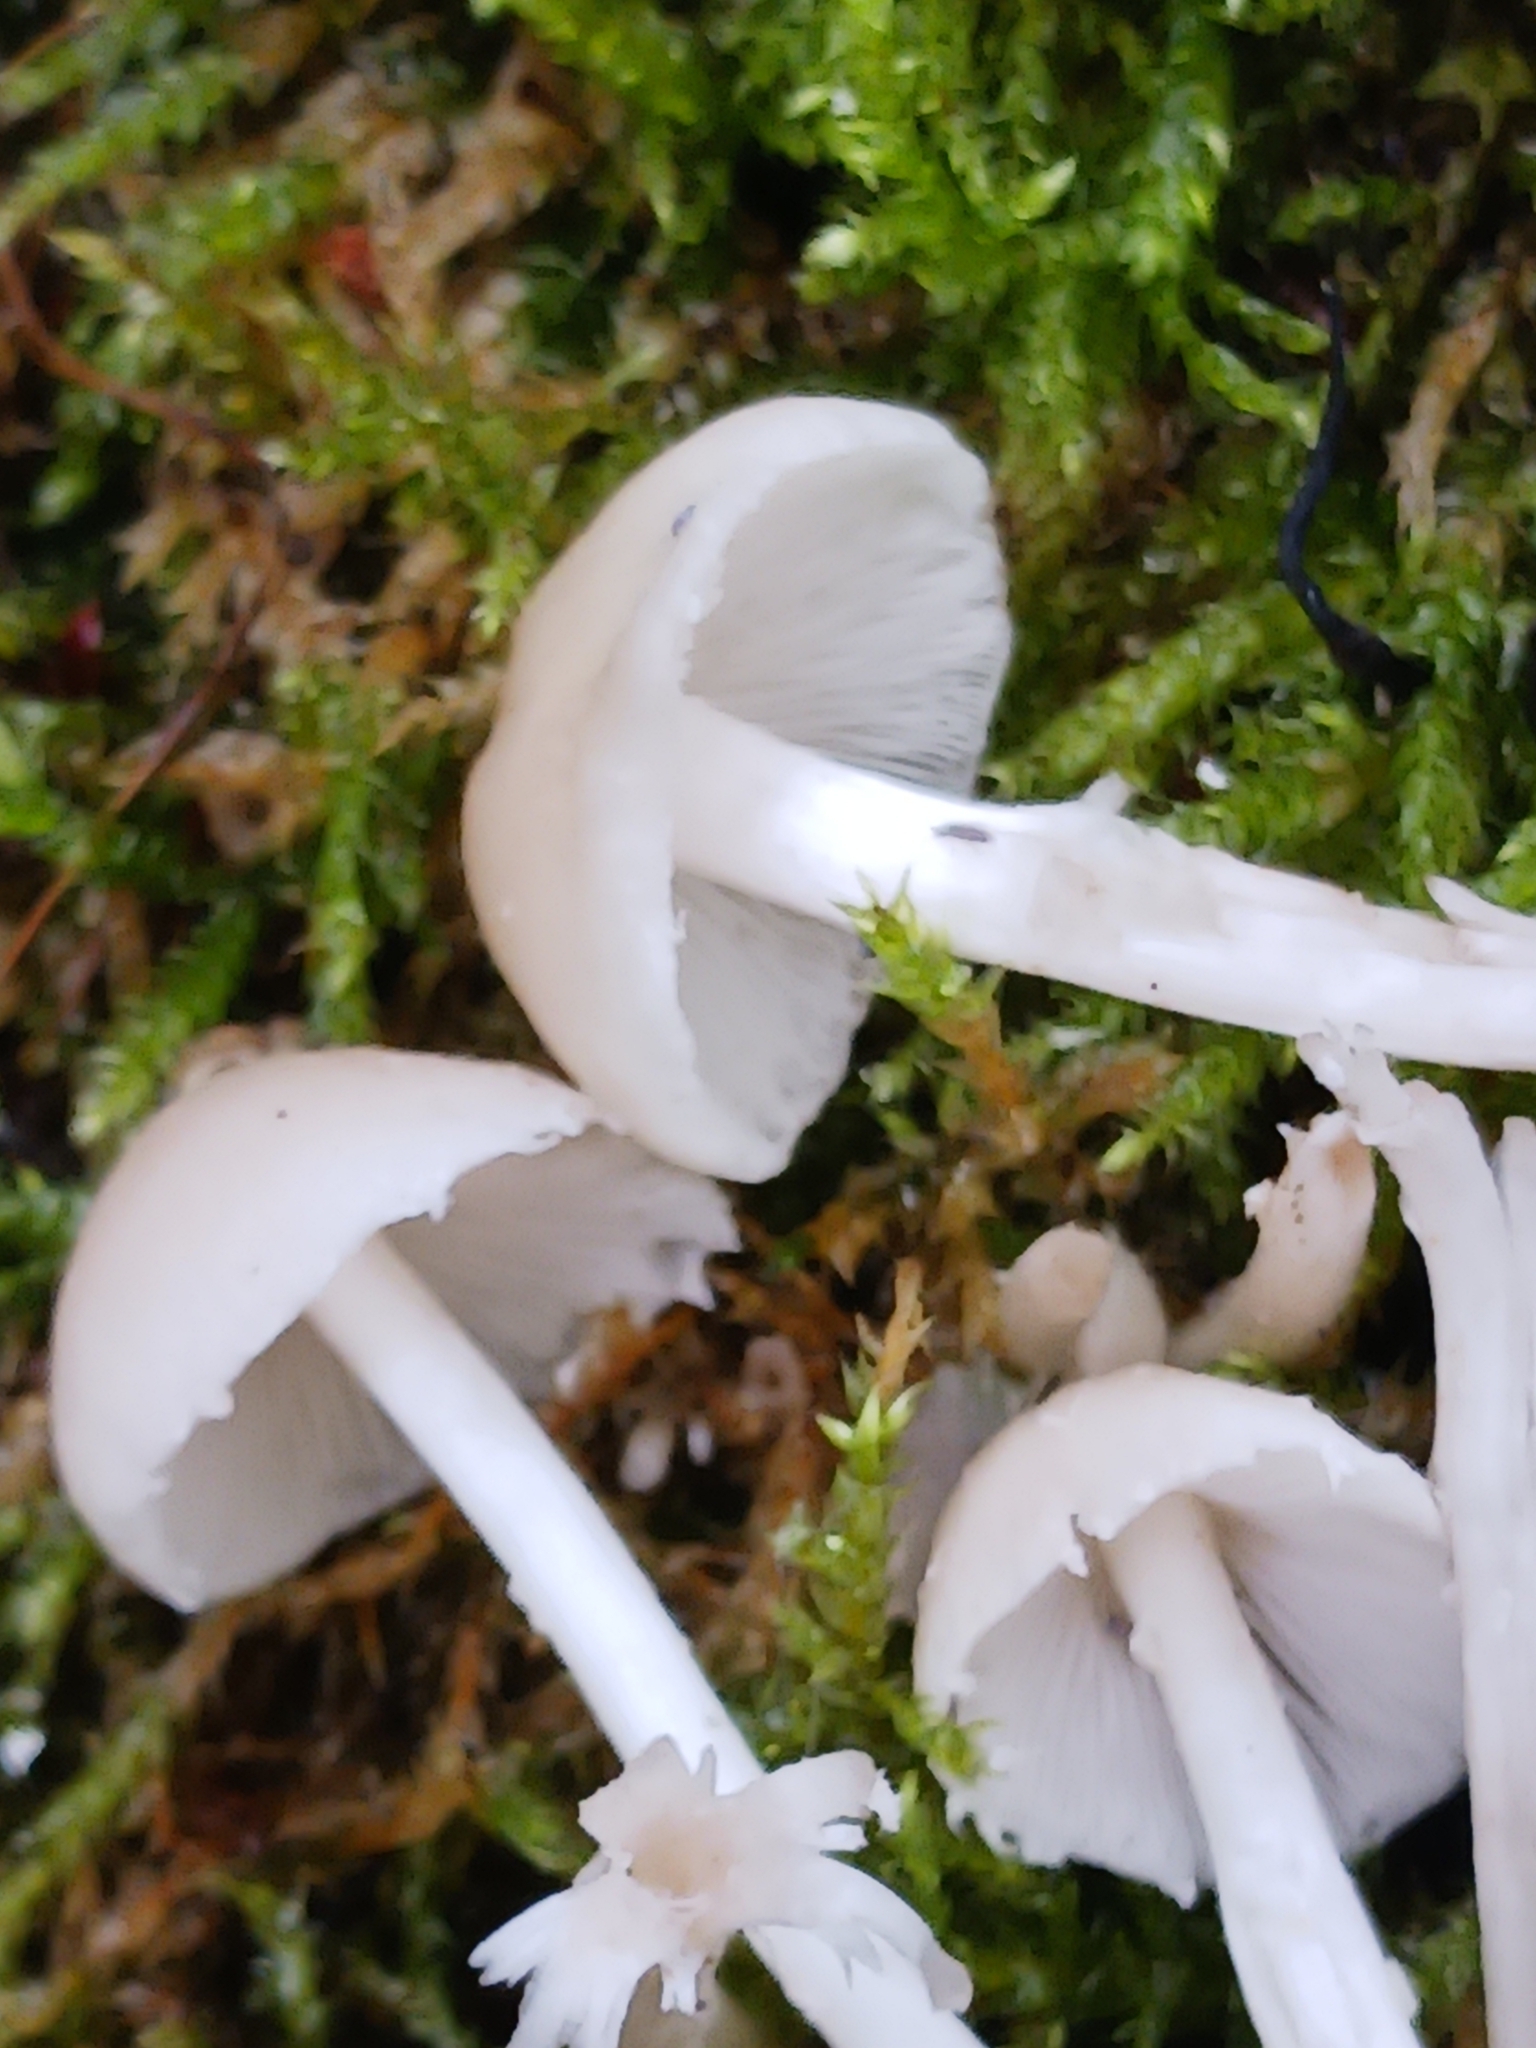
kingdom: Fungi
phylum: Basidiomycota
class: Agaricomycetes
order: Agaricales
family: Psathyrellaceae
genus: Candolleomyces
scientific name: Candolleomyces candolleanus
